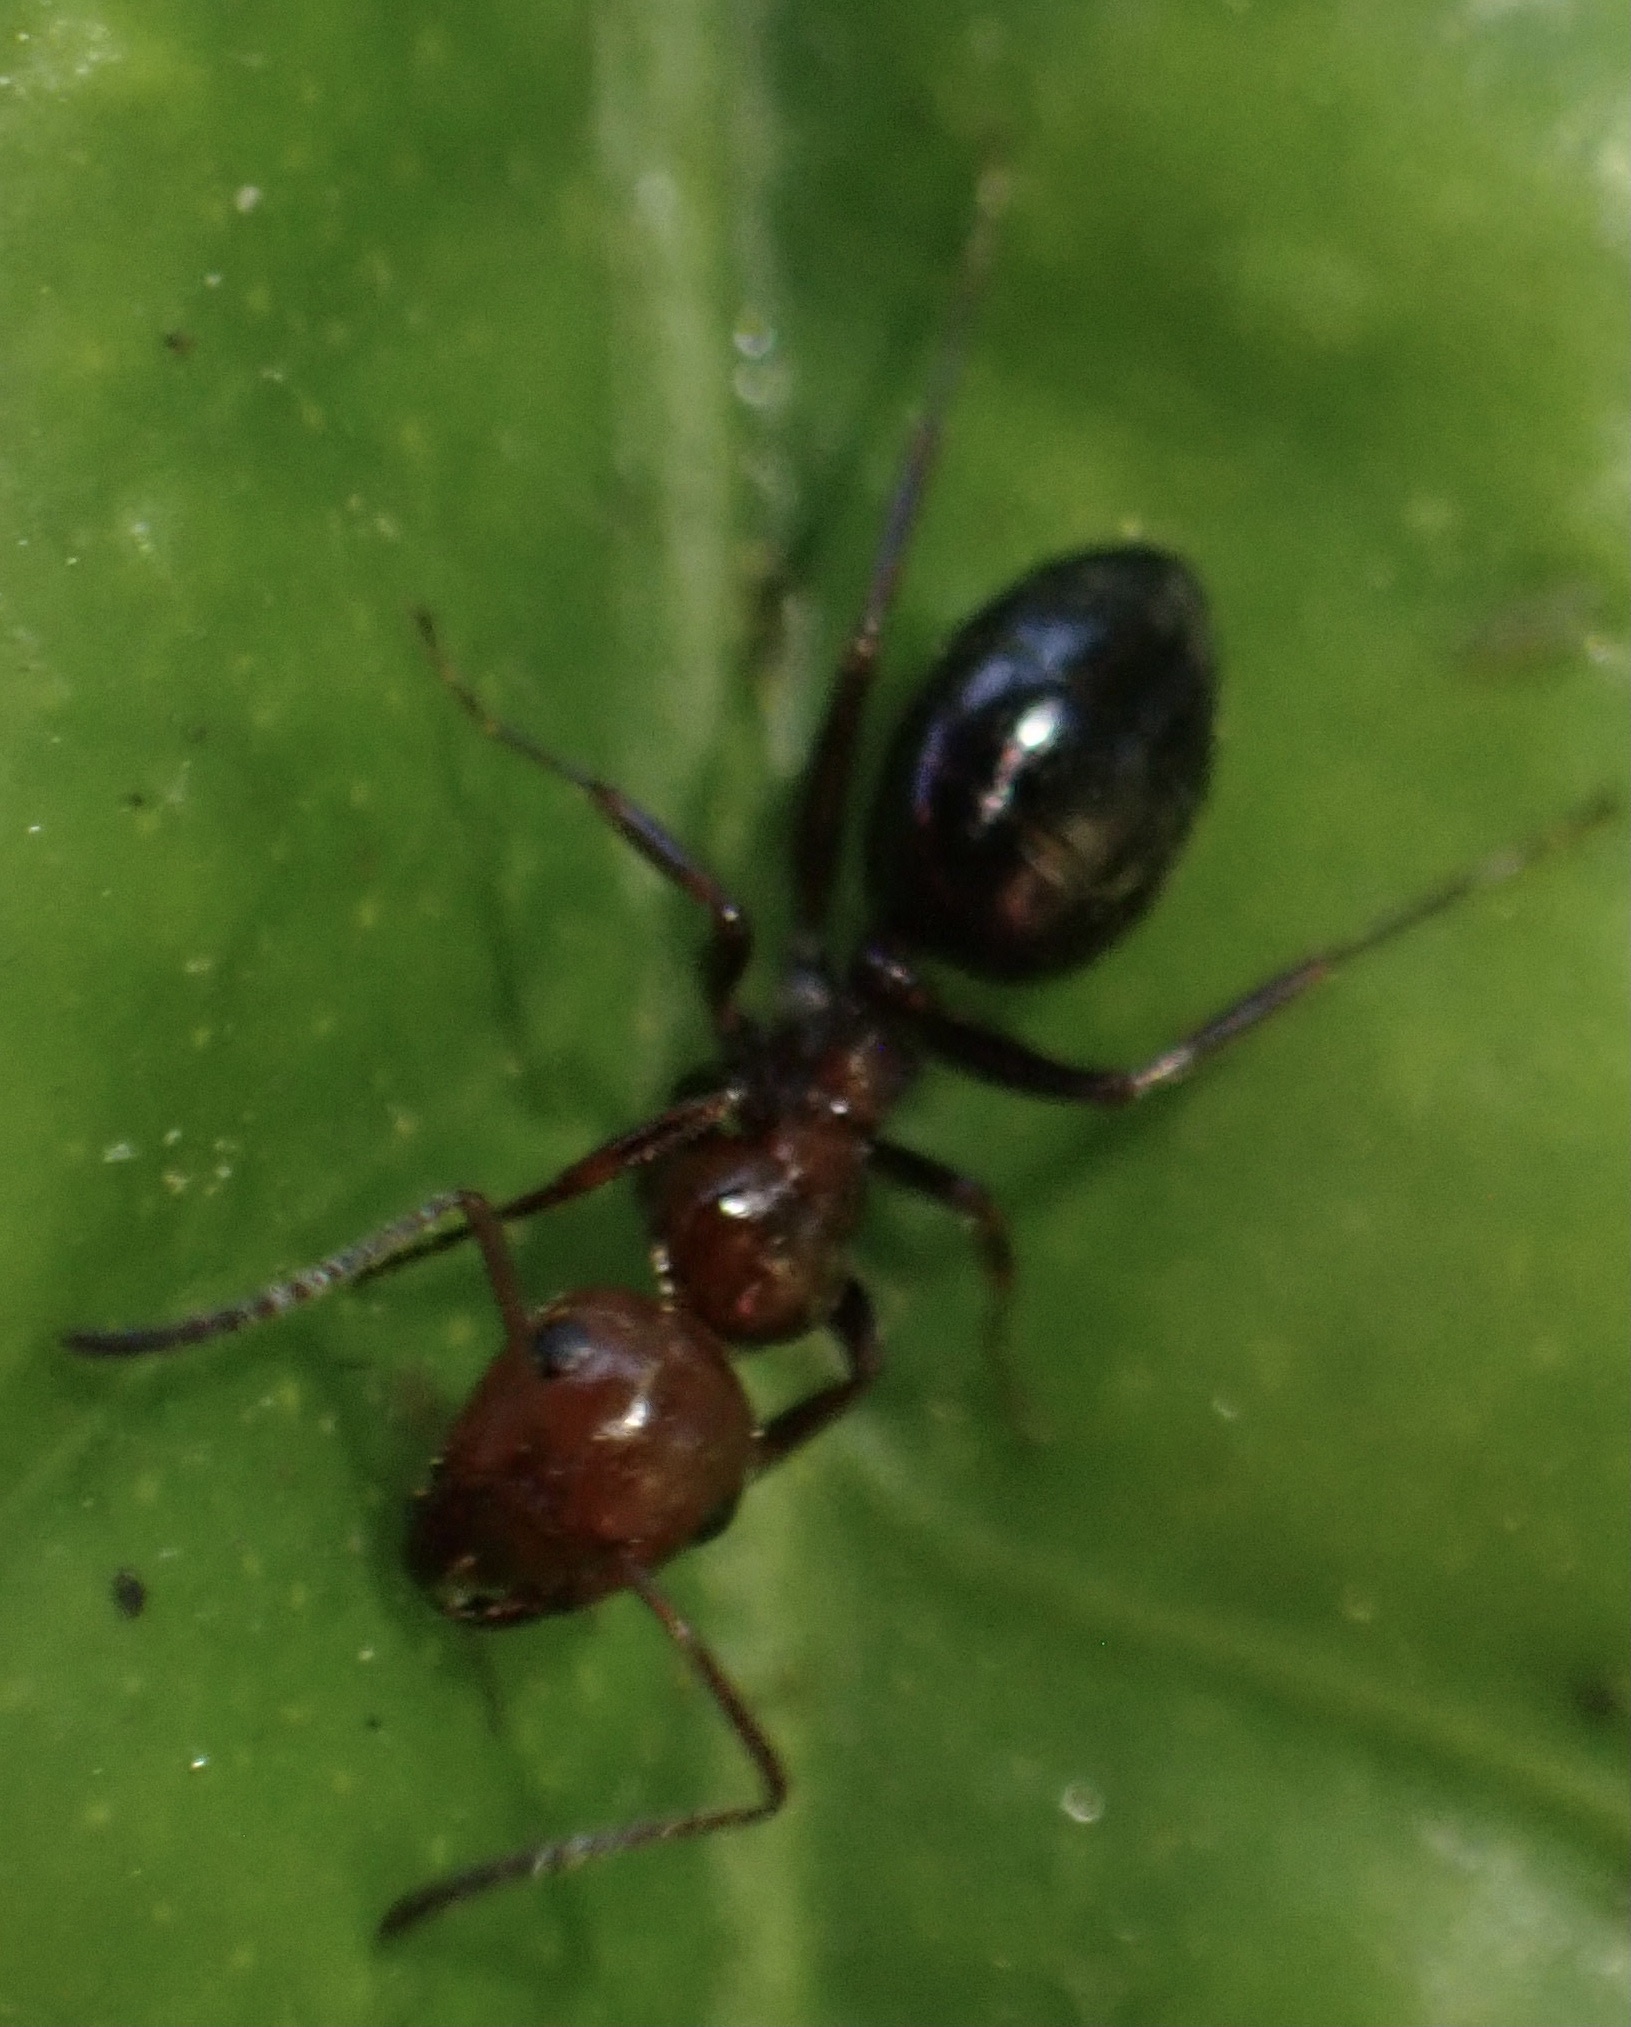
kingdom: Animalia
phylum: Arthropoda
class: Insecta
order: Hymenoptera
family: Formicidae
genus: Camponotus
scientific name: Camponotus lateralis
